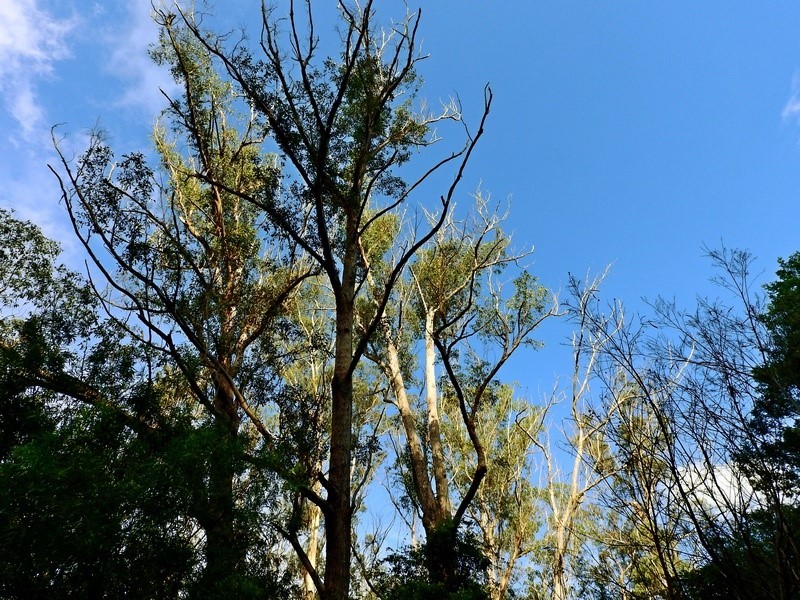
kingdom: Animalia
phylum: Chordata
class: Aves
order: Passeriformes
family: Meliphagidae
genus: Manorina
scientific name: Manorina melanophrys
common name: Bell miner
